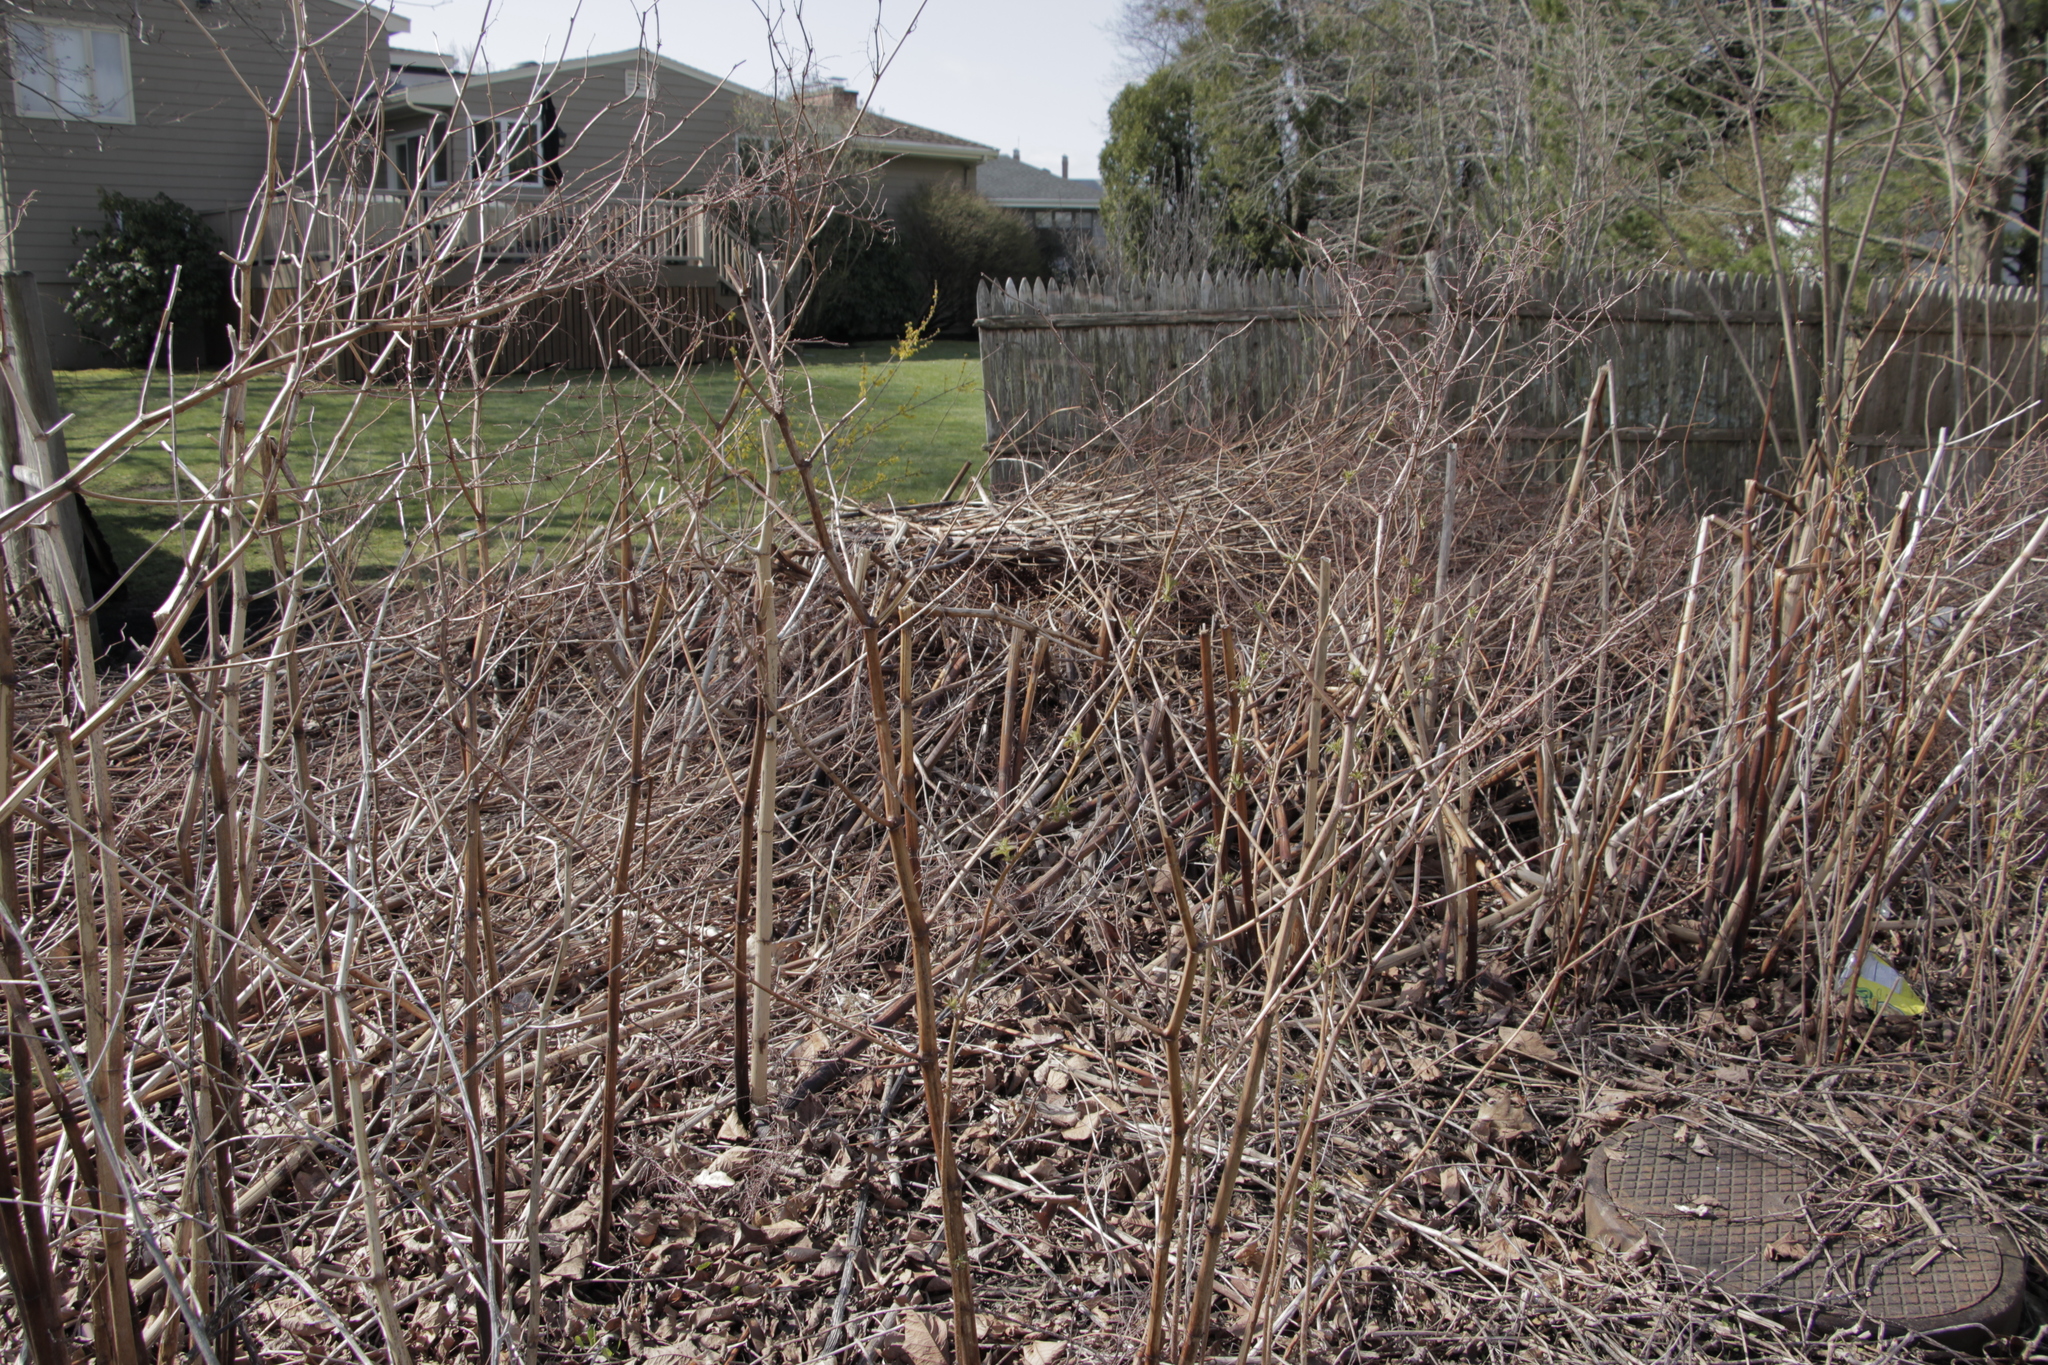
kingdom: Plantae
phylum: Tracheophyta
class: Magnoliopsida
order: Caryophyllales
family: Polygonaceae
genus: Reynoutria
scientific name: Reynoutria japonica
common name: Japanese knotweed
